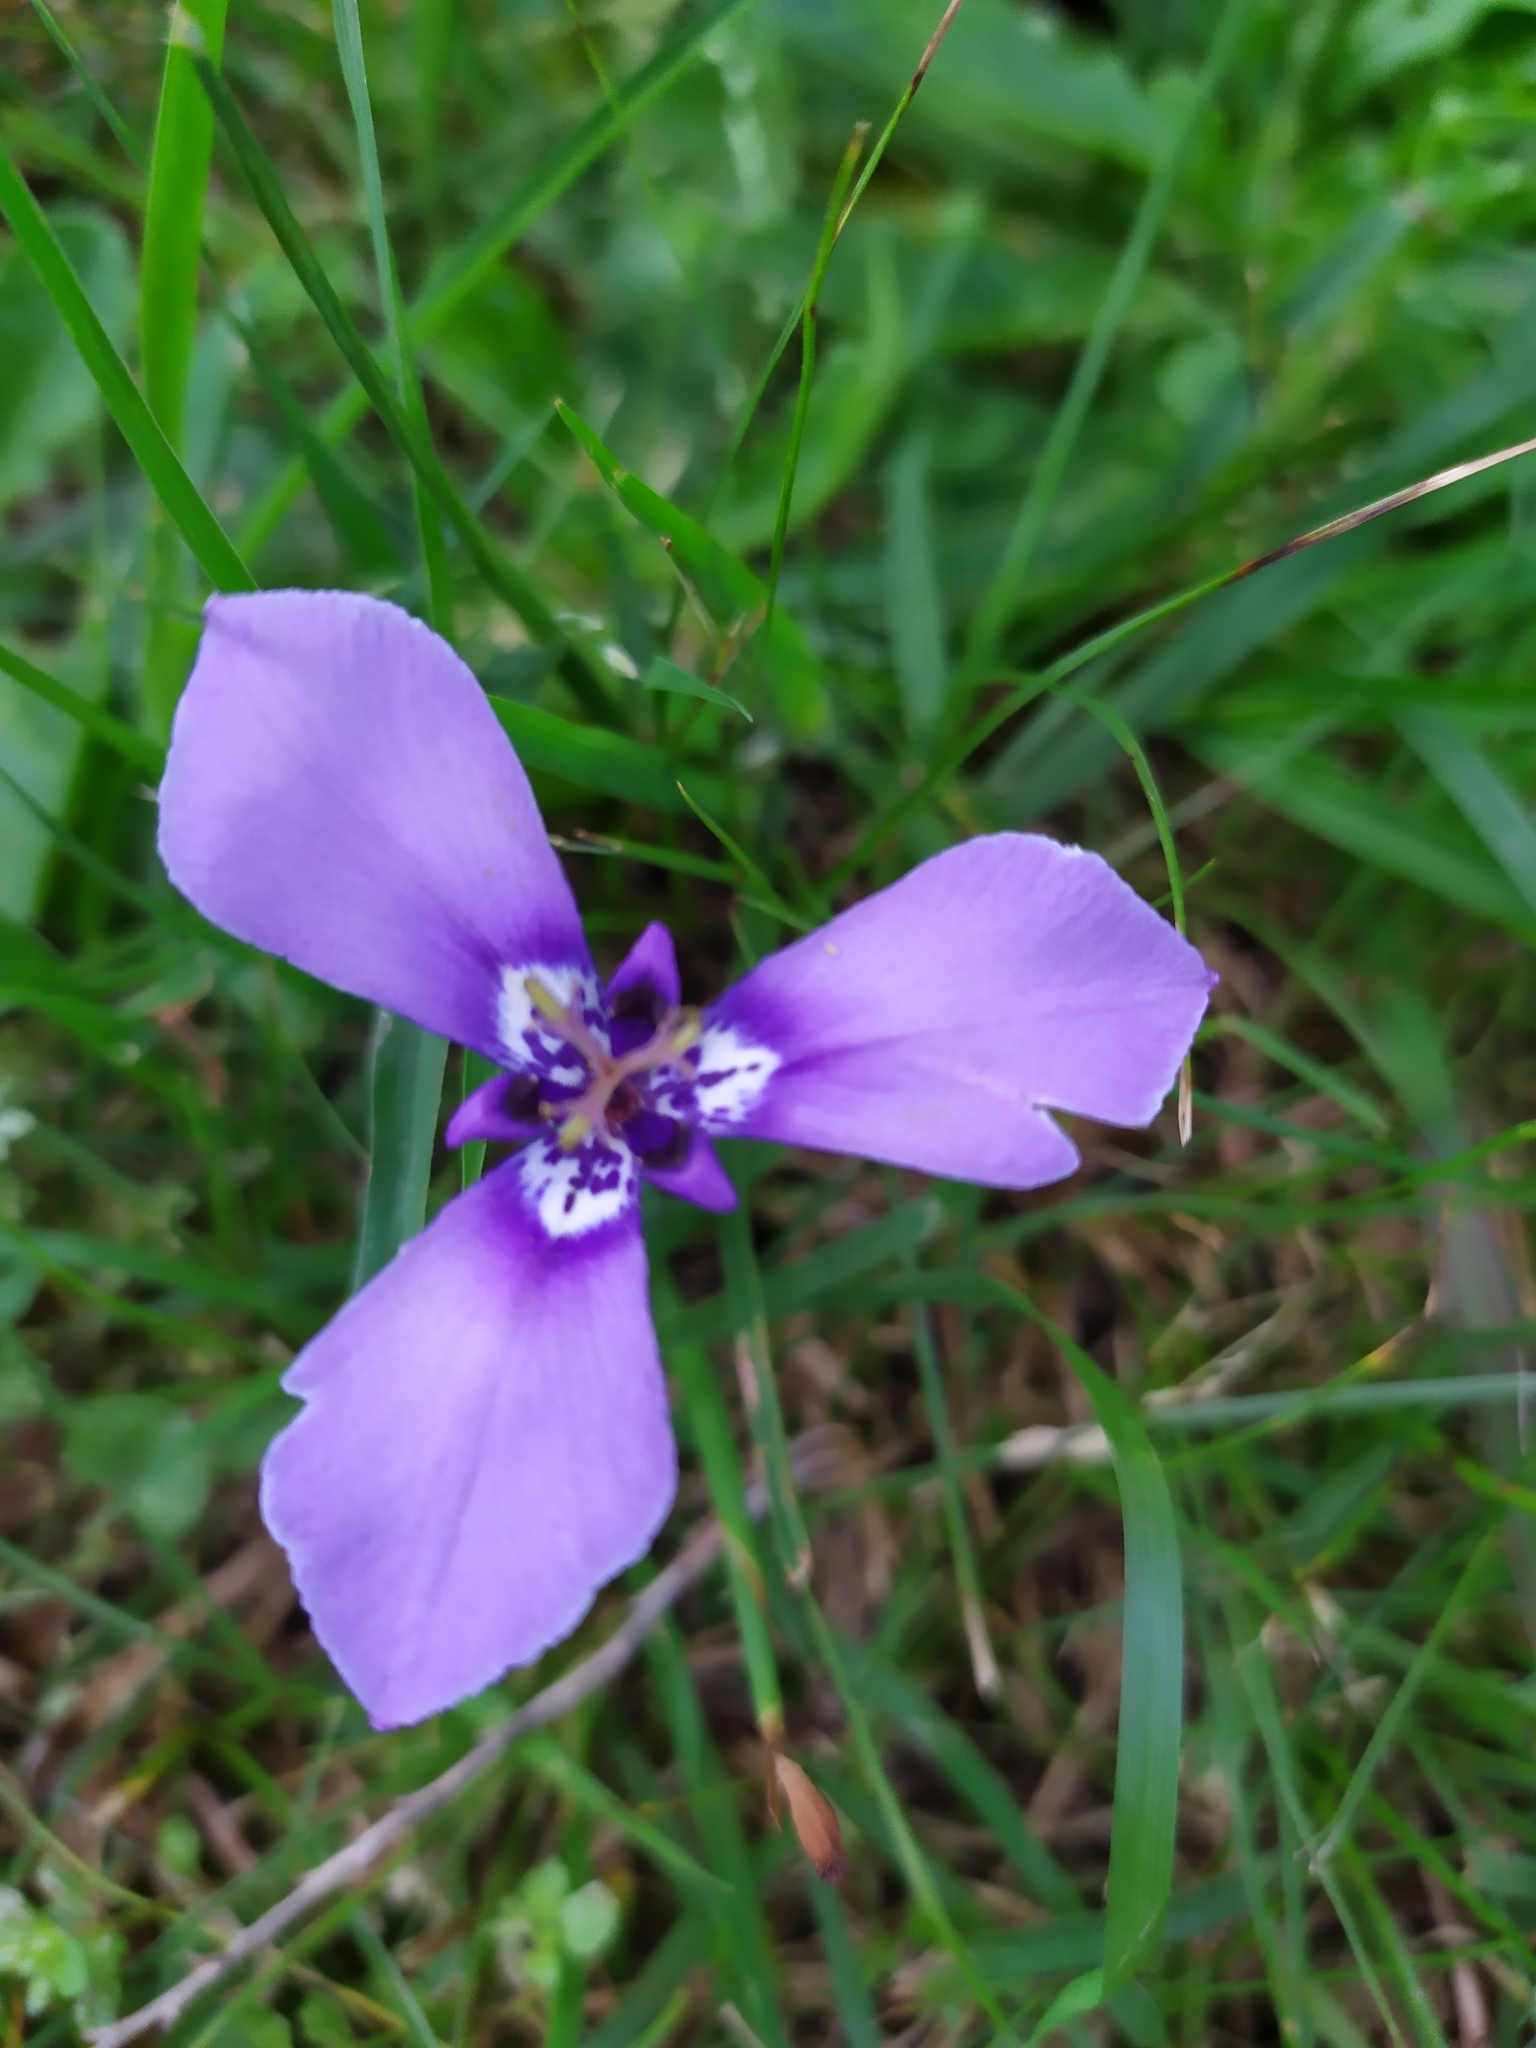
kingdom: Plantae
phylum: Tracheophyta
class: Liliopsida
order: Asparagales
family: Iridaceae
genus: Herbertia
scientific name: Herbertia lahue
